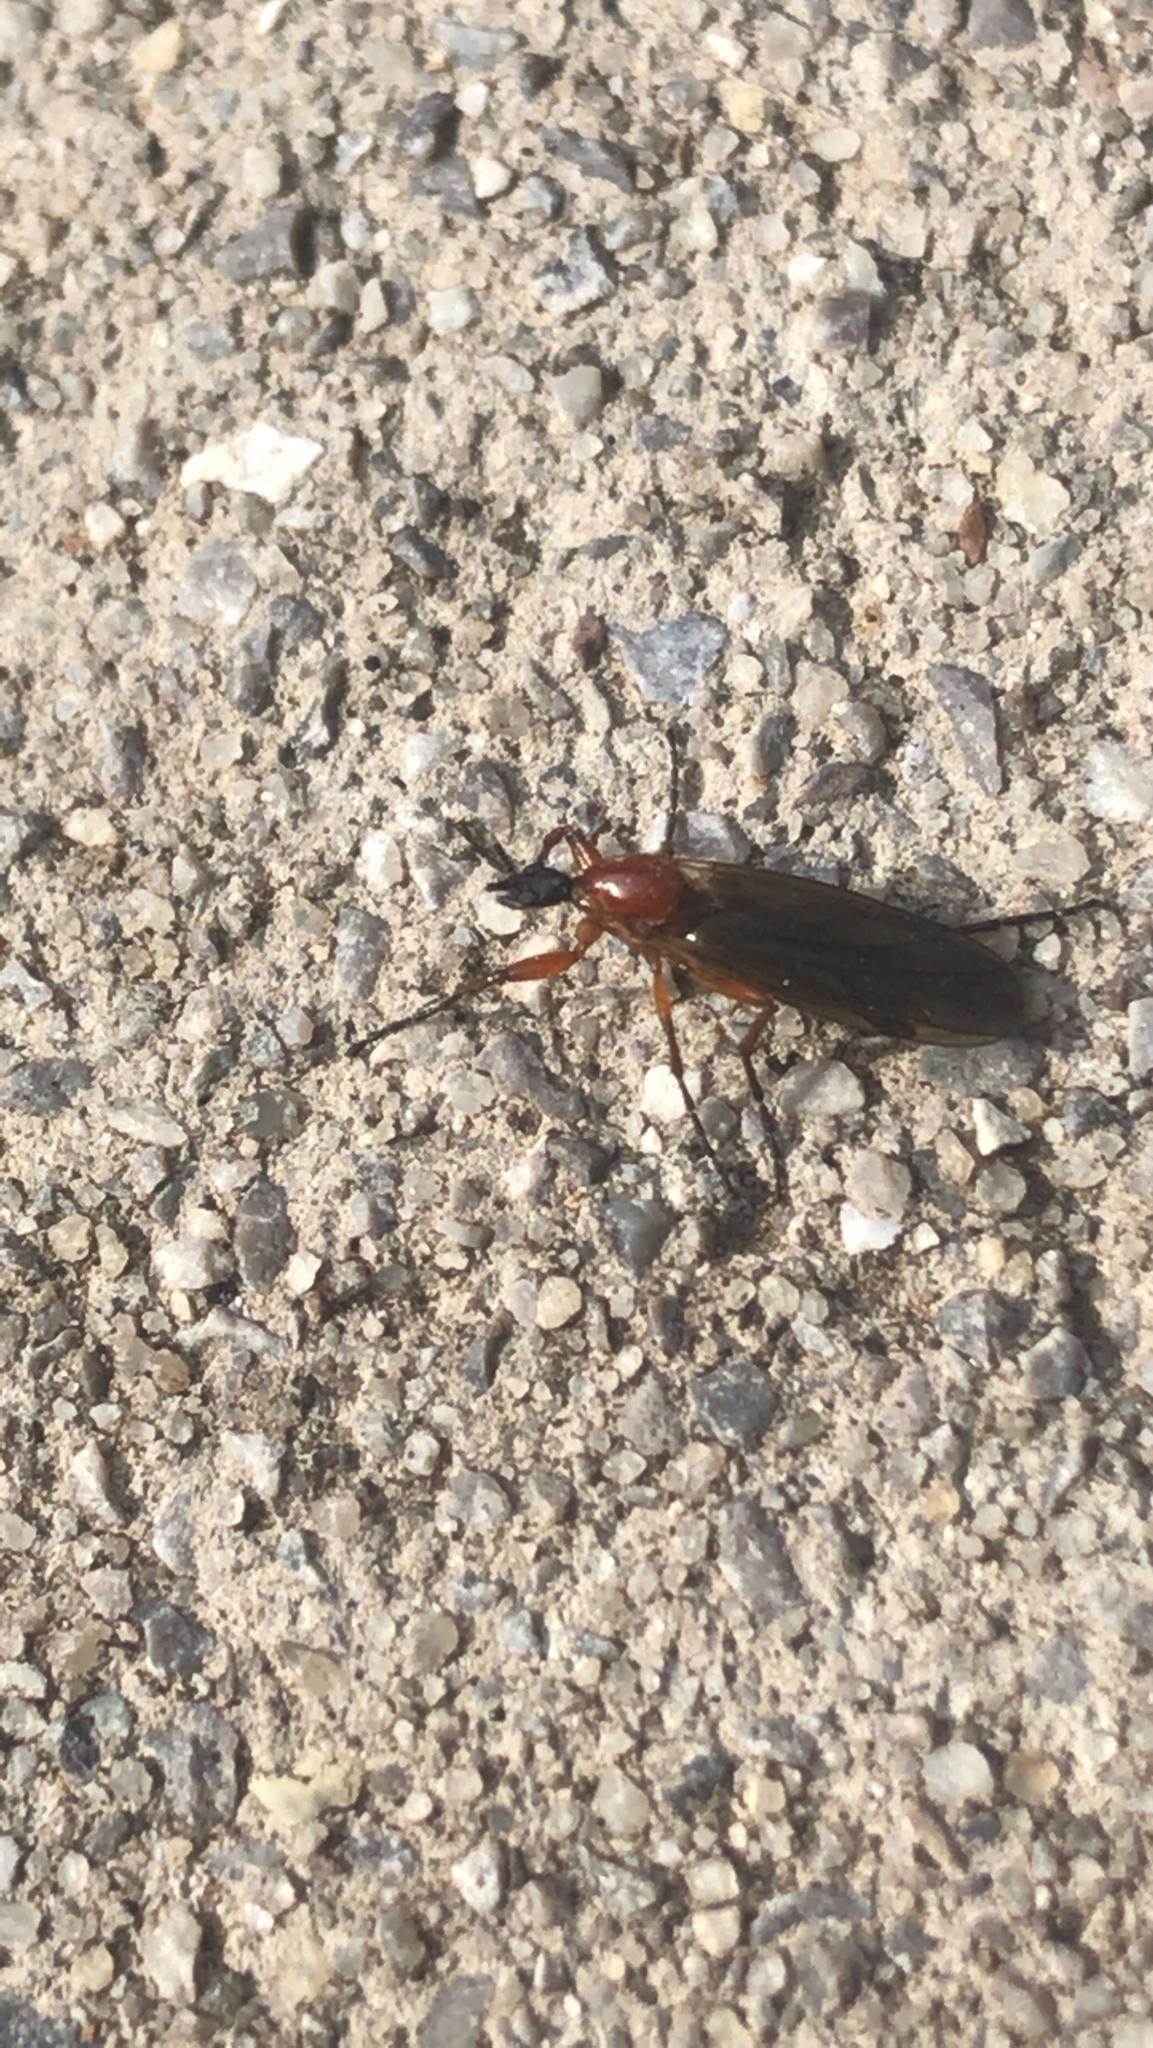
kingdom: Animalia
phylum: Arthropoda
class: Insecta
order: Diptera
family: Bibionidae
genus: Bibio
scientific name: Bibio longipes
